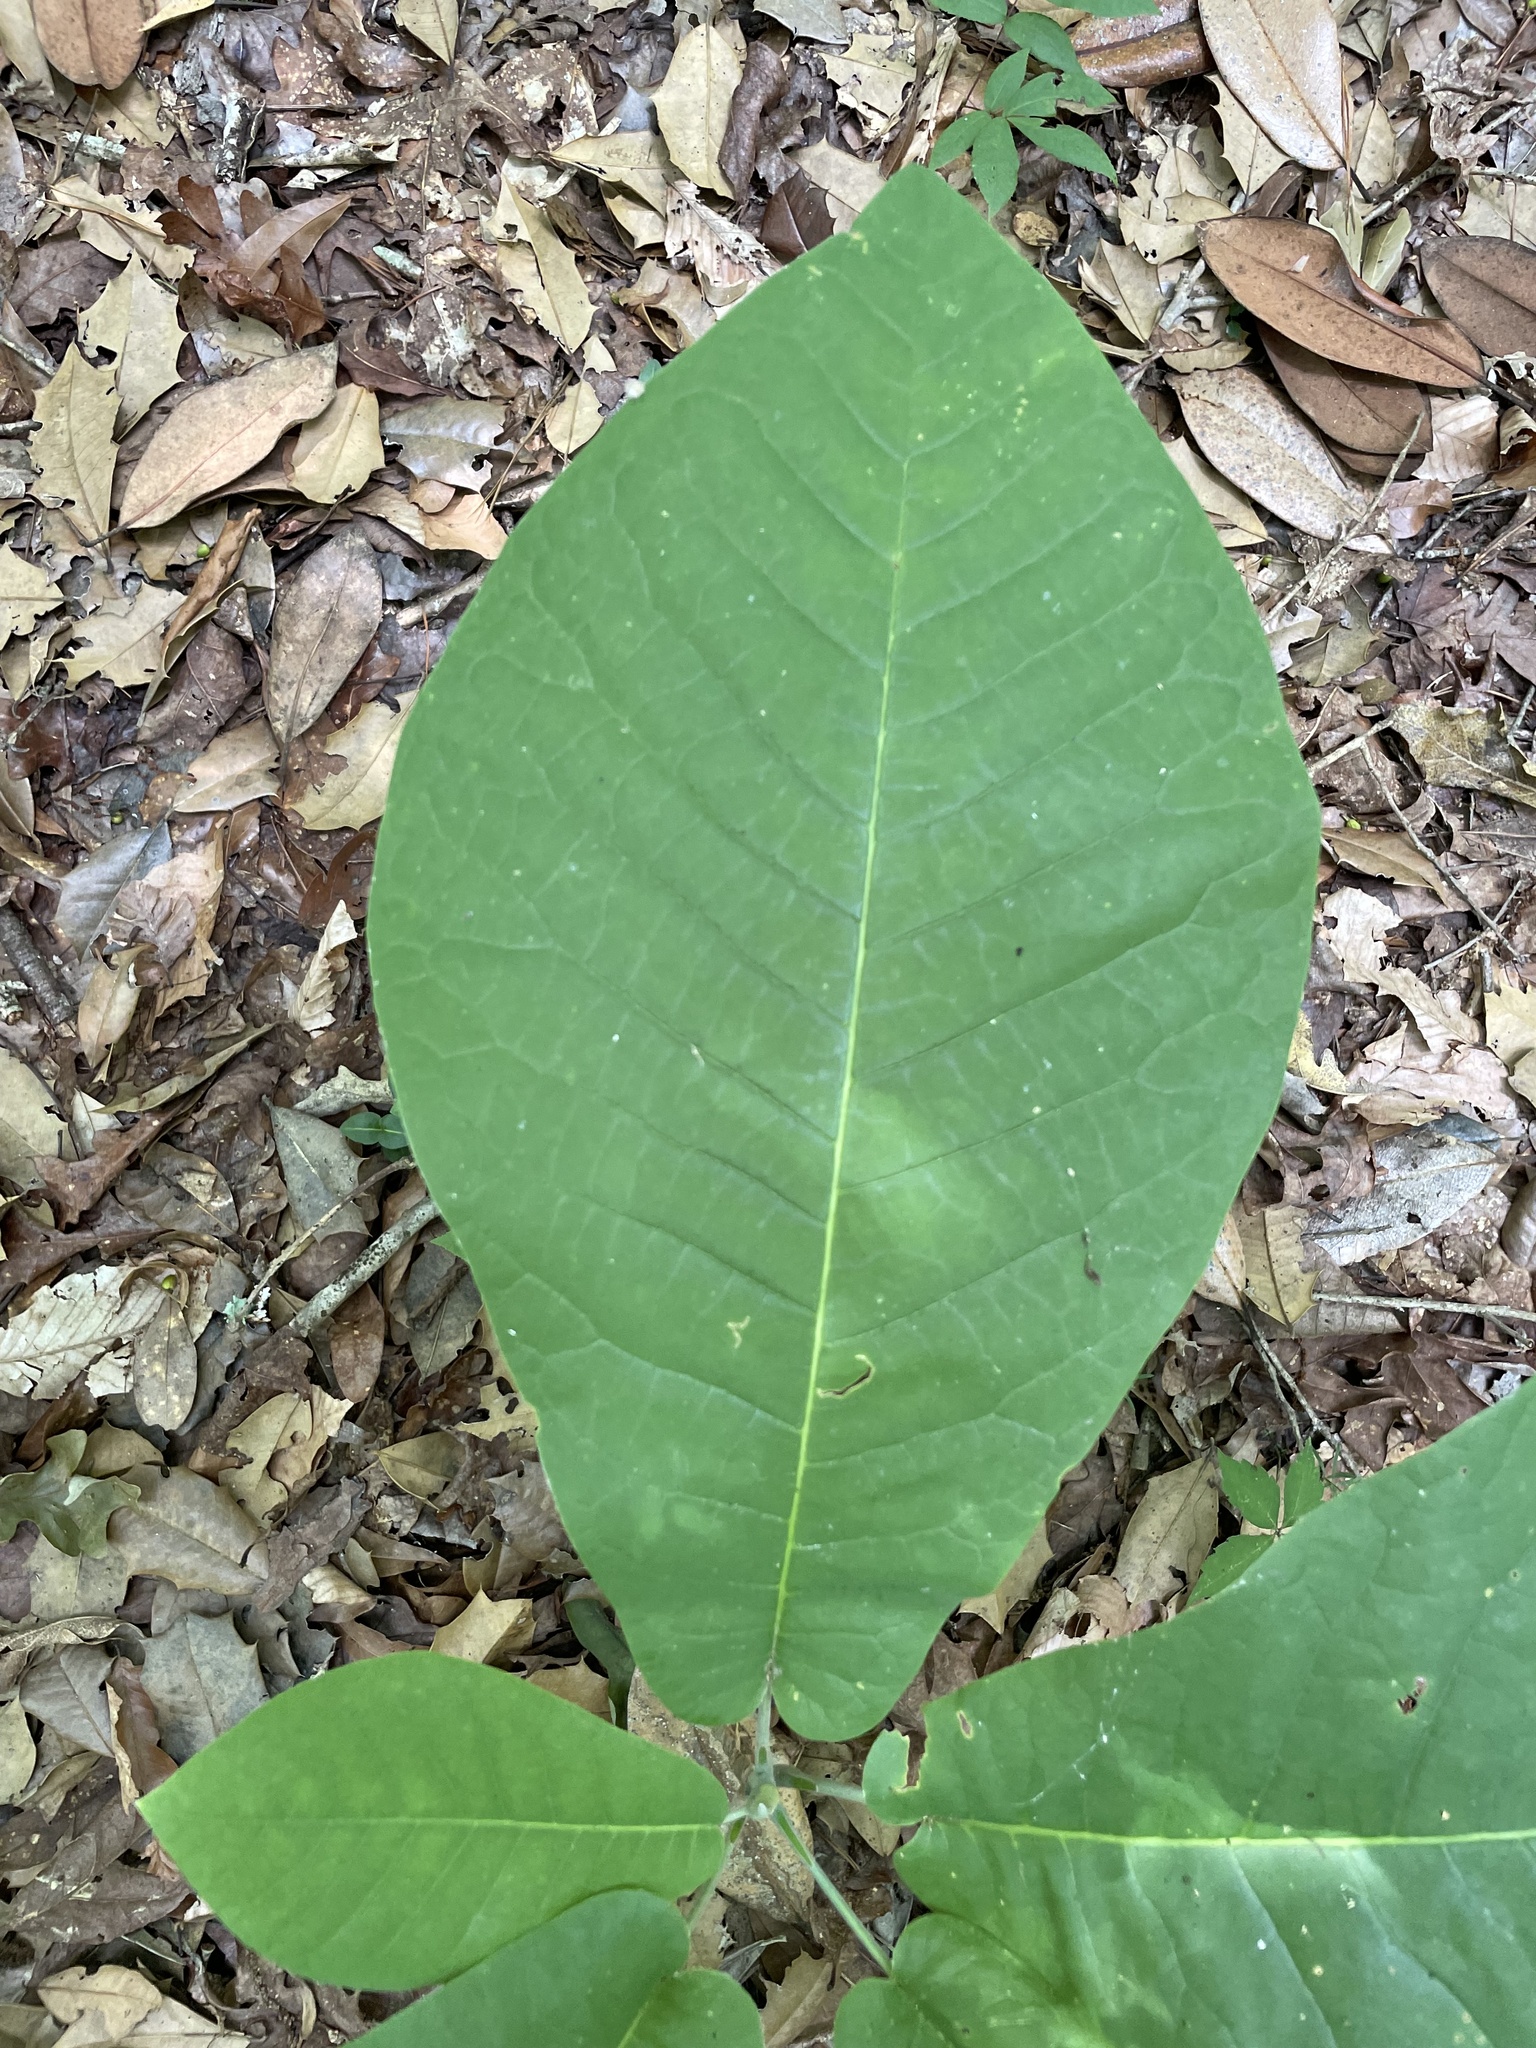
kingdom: Plantae
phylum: Tracheophyta
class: Magnoliopsida
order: Magnoliales
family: Magnoliaceae
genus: Magnolia
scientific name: Magnolia macrophylla
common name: Big-leaf magnolia
